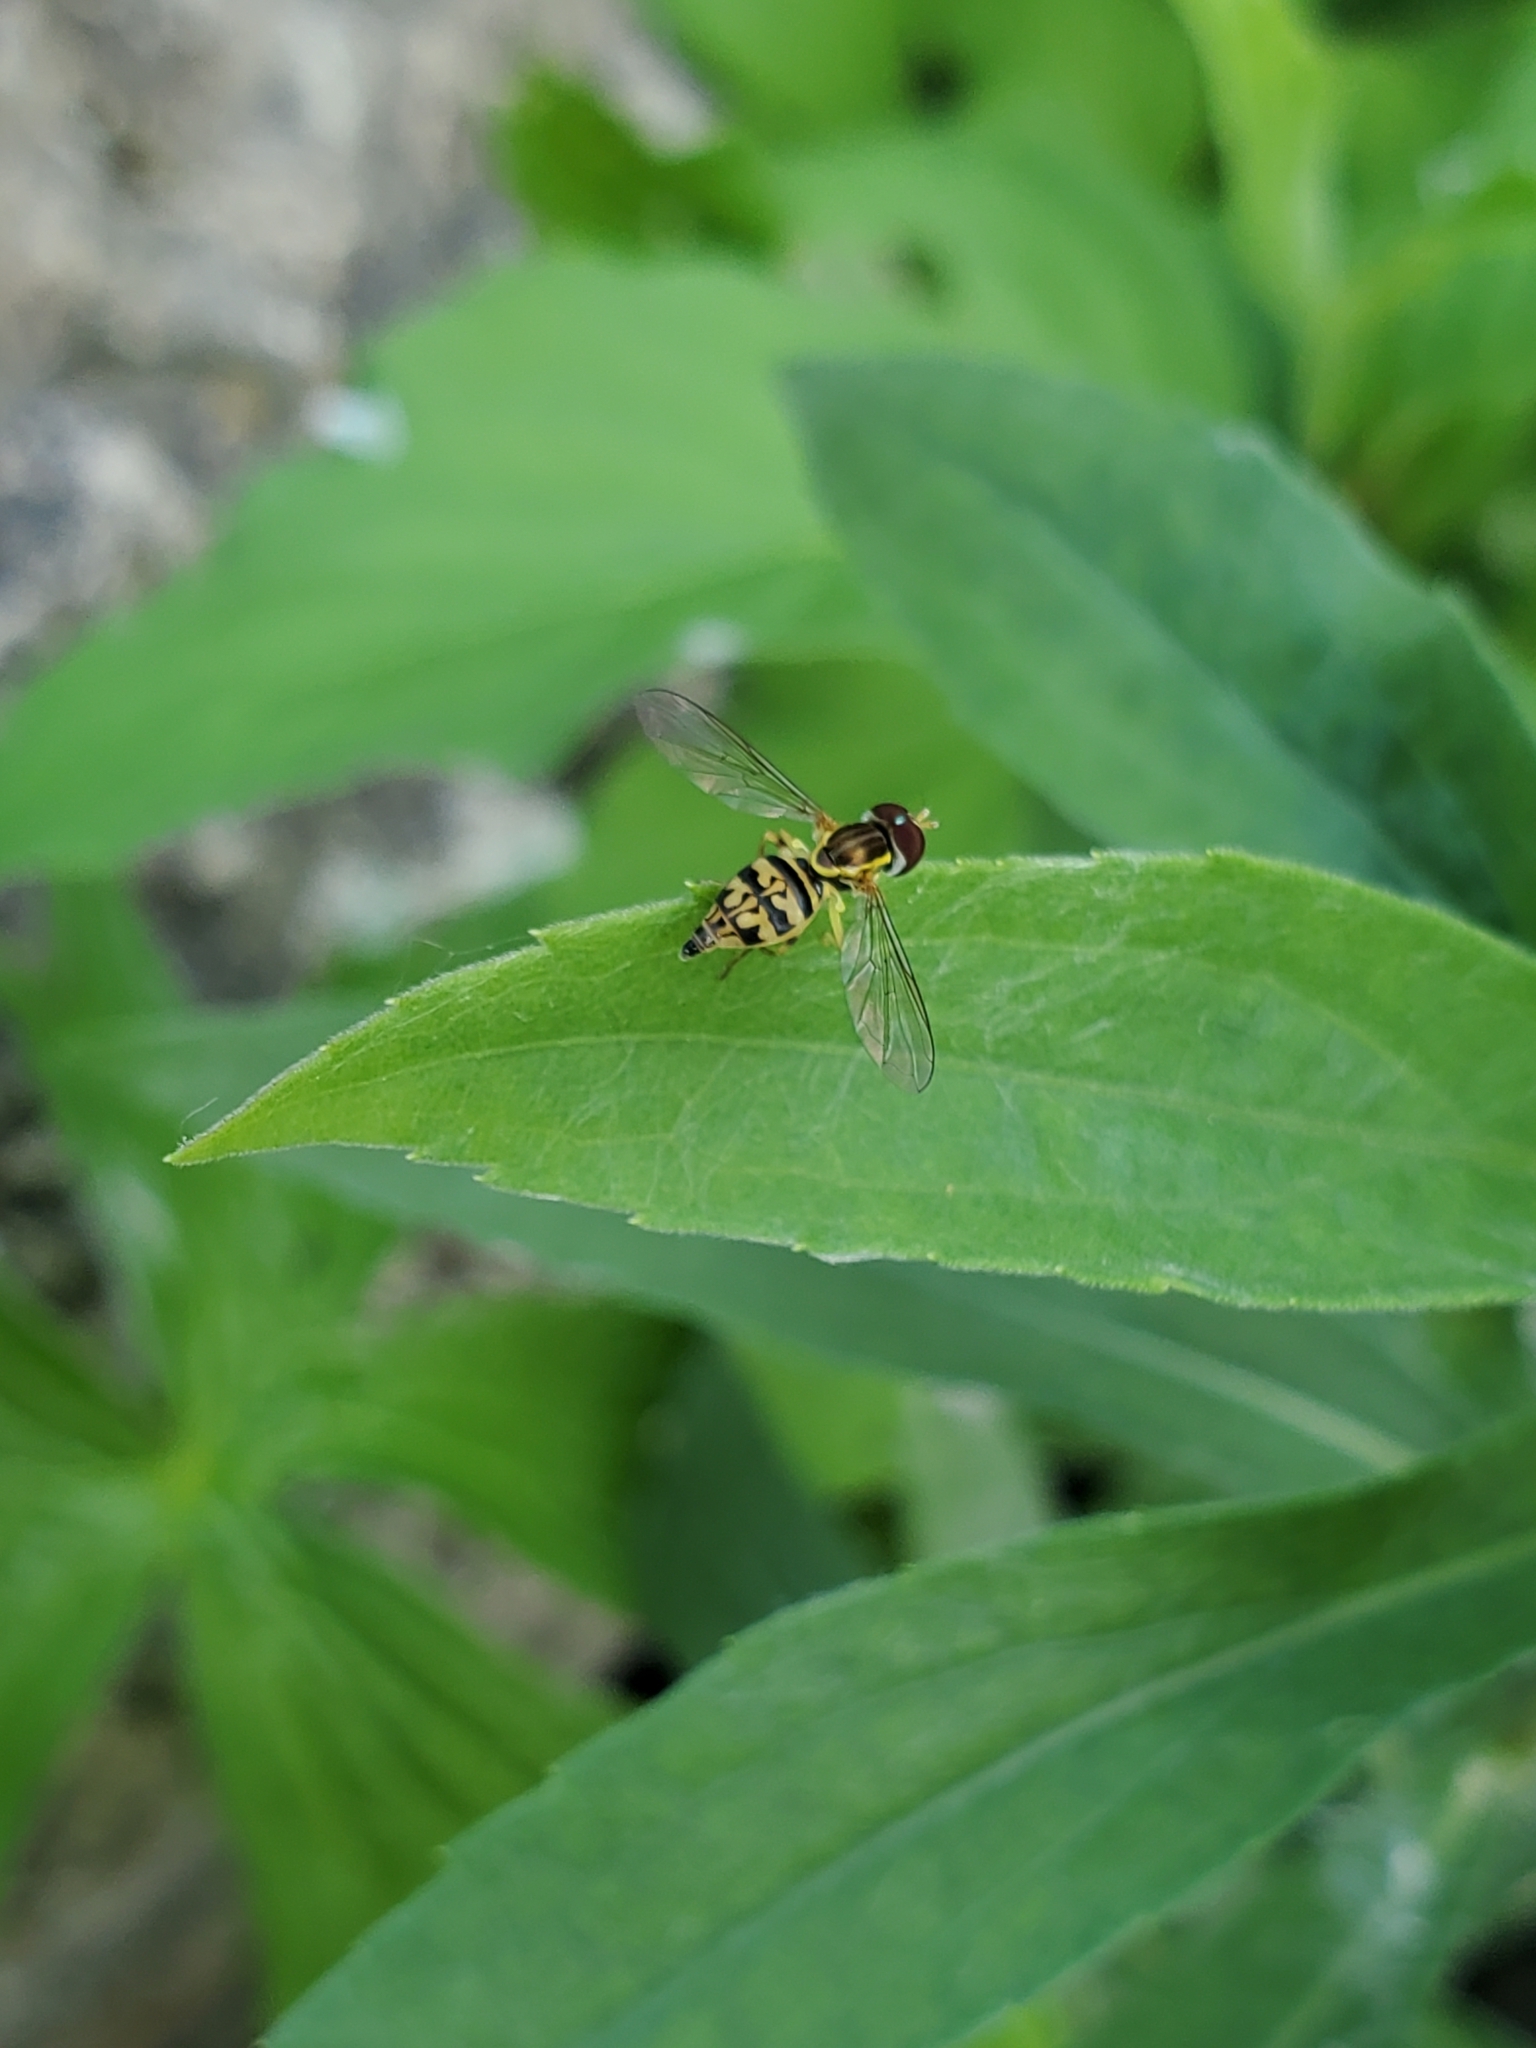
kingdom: Animalia
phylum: Arthropoda
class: Insecta
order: Diptera
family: Syrphidae
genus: Toxomerus
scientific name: Toxomerus geminatus
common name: Eastern calligrapher
